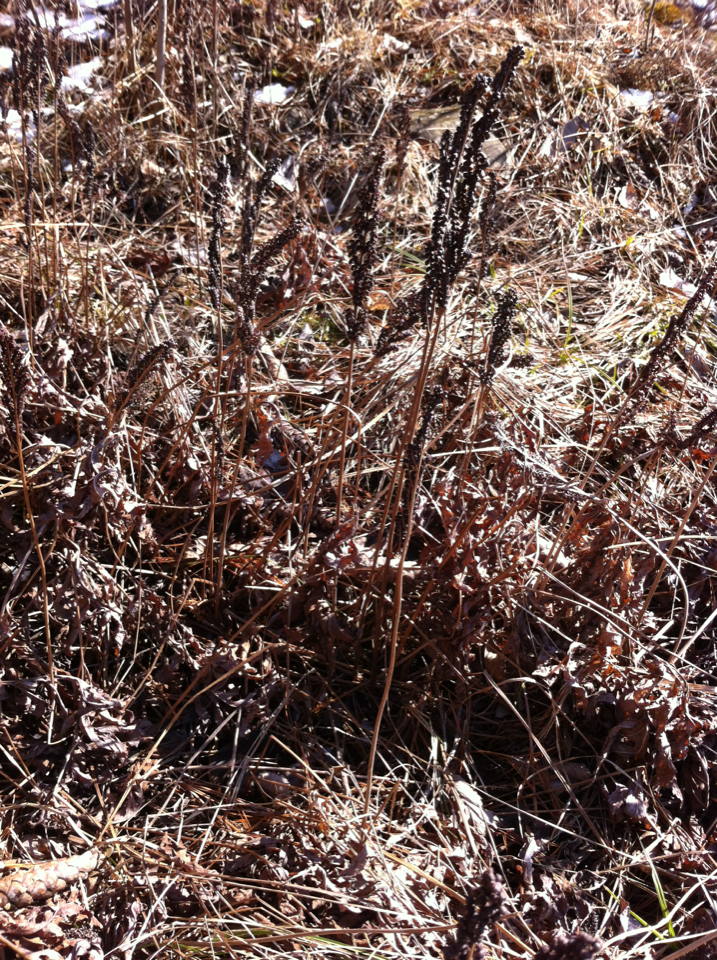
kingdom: Plantae
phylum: Tracheophyta
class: Polypodiopsida
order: Polypodiales
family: Onocleaceae
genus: Onoclea
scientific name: Onoclea sensibilis
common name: Sensitive fern
